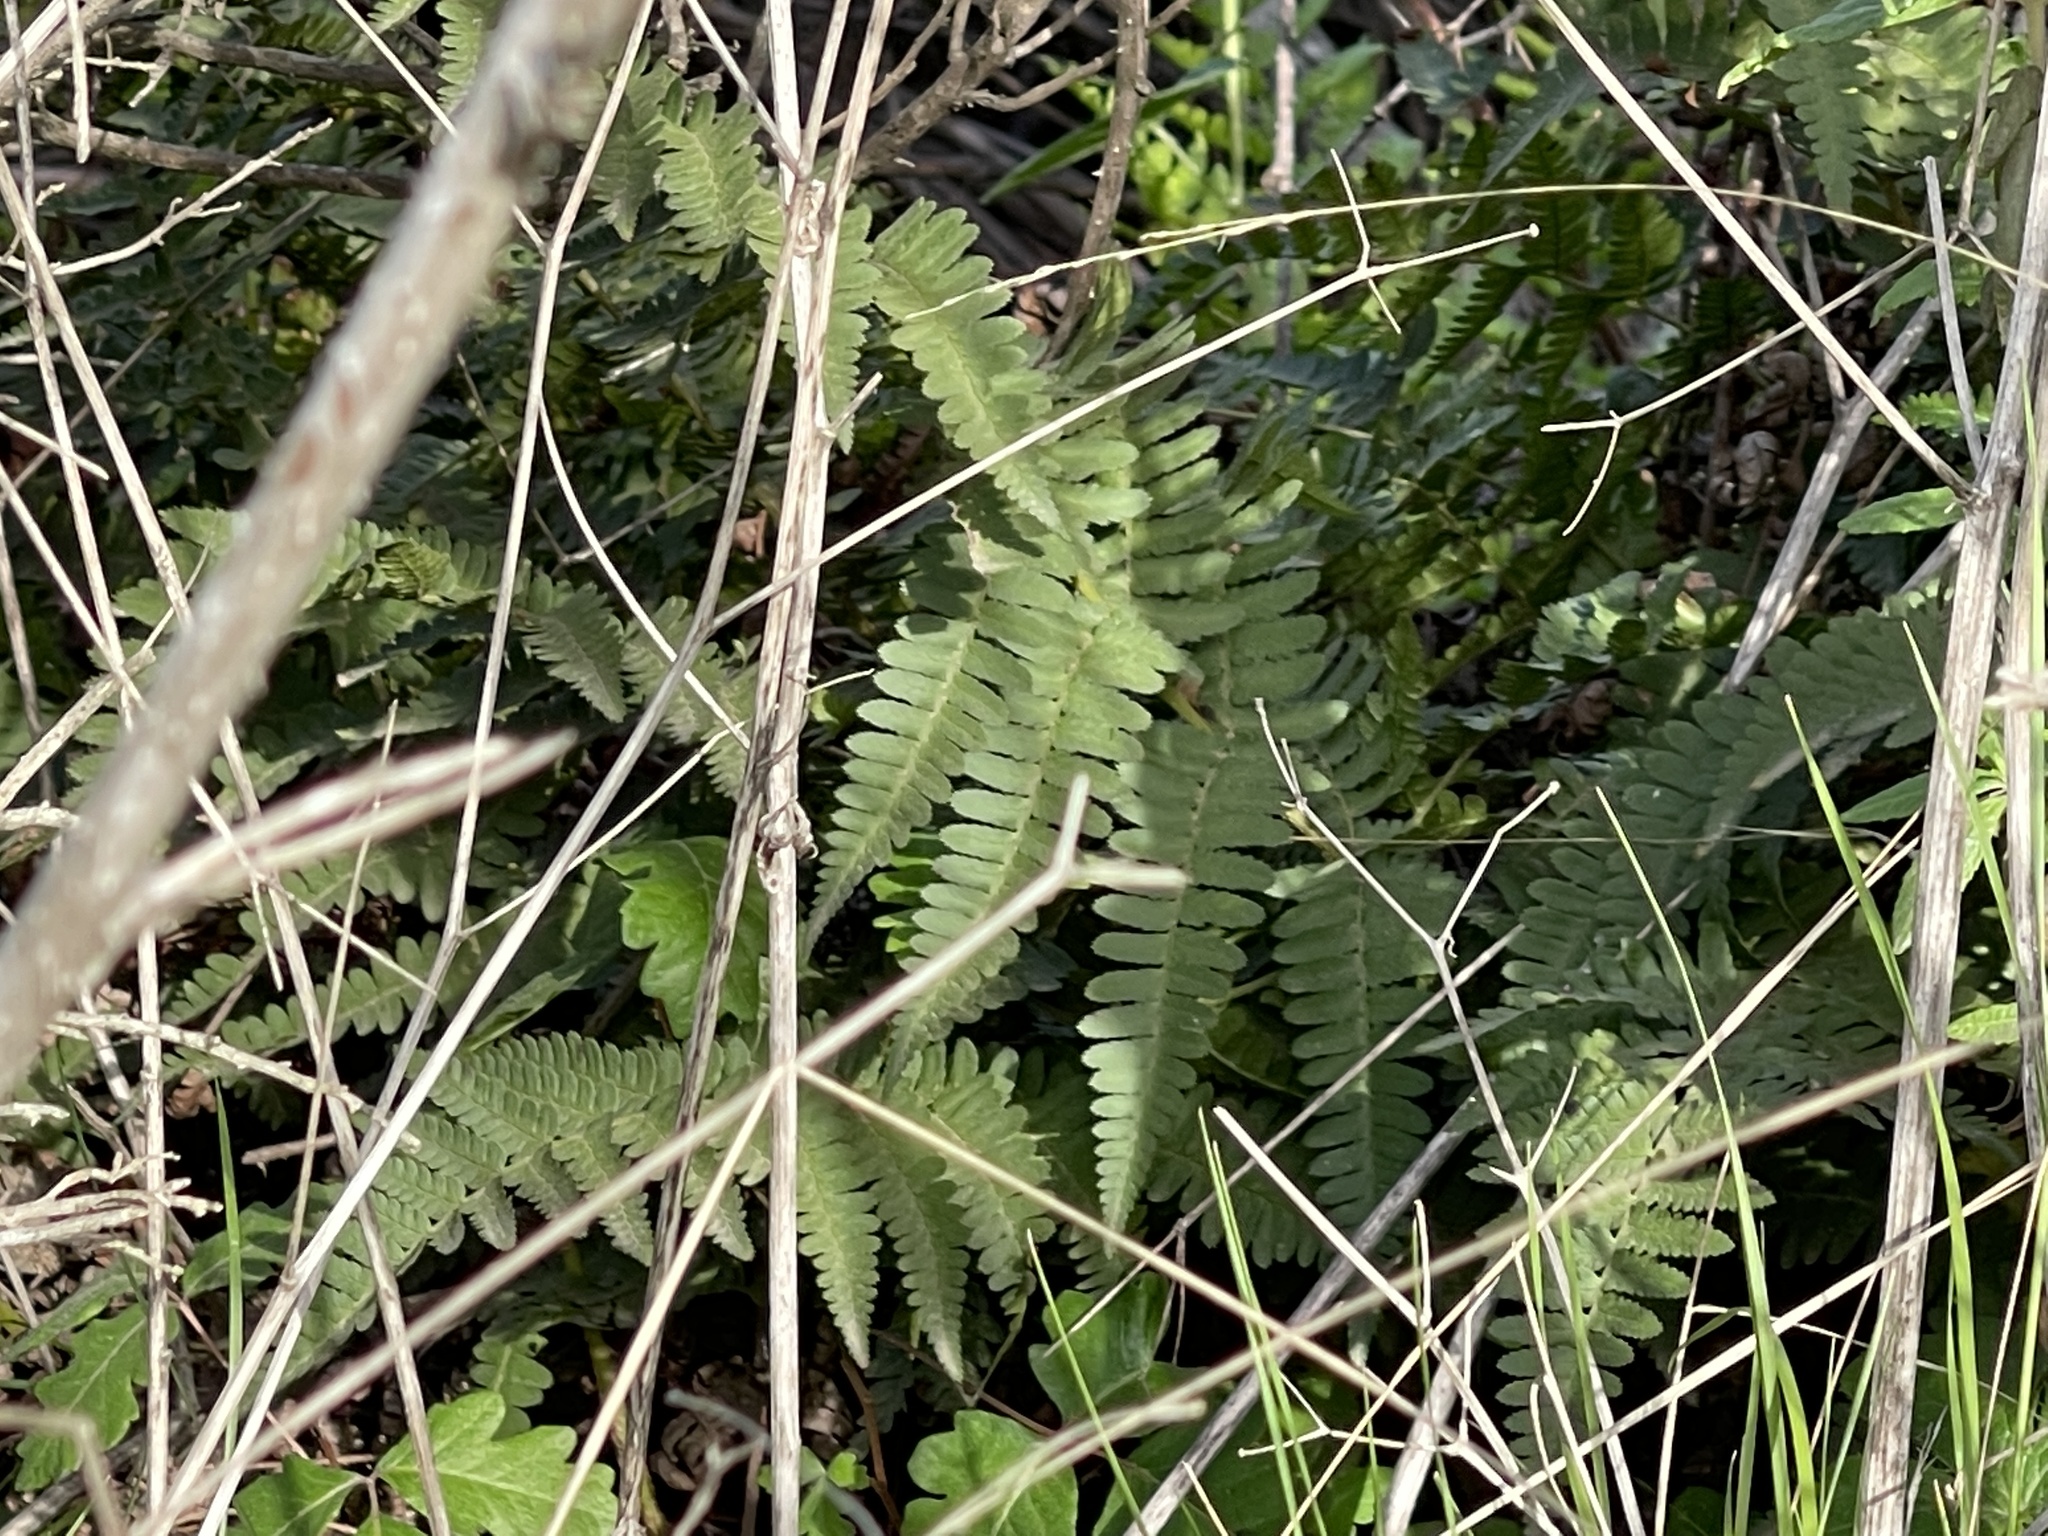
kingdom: Plantae
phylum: Tracheophyta
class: Polypodiopsida
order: Polypodiales
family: Dryopteridaceae
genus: Dryopteris
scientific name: Dryopteris arguta
